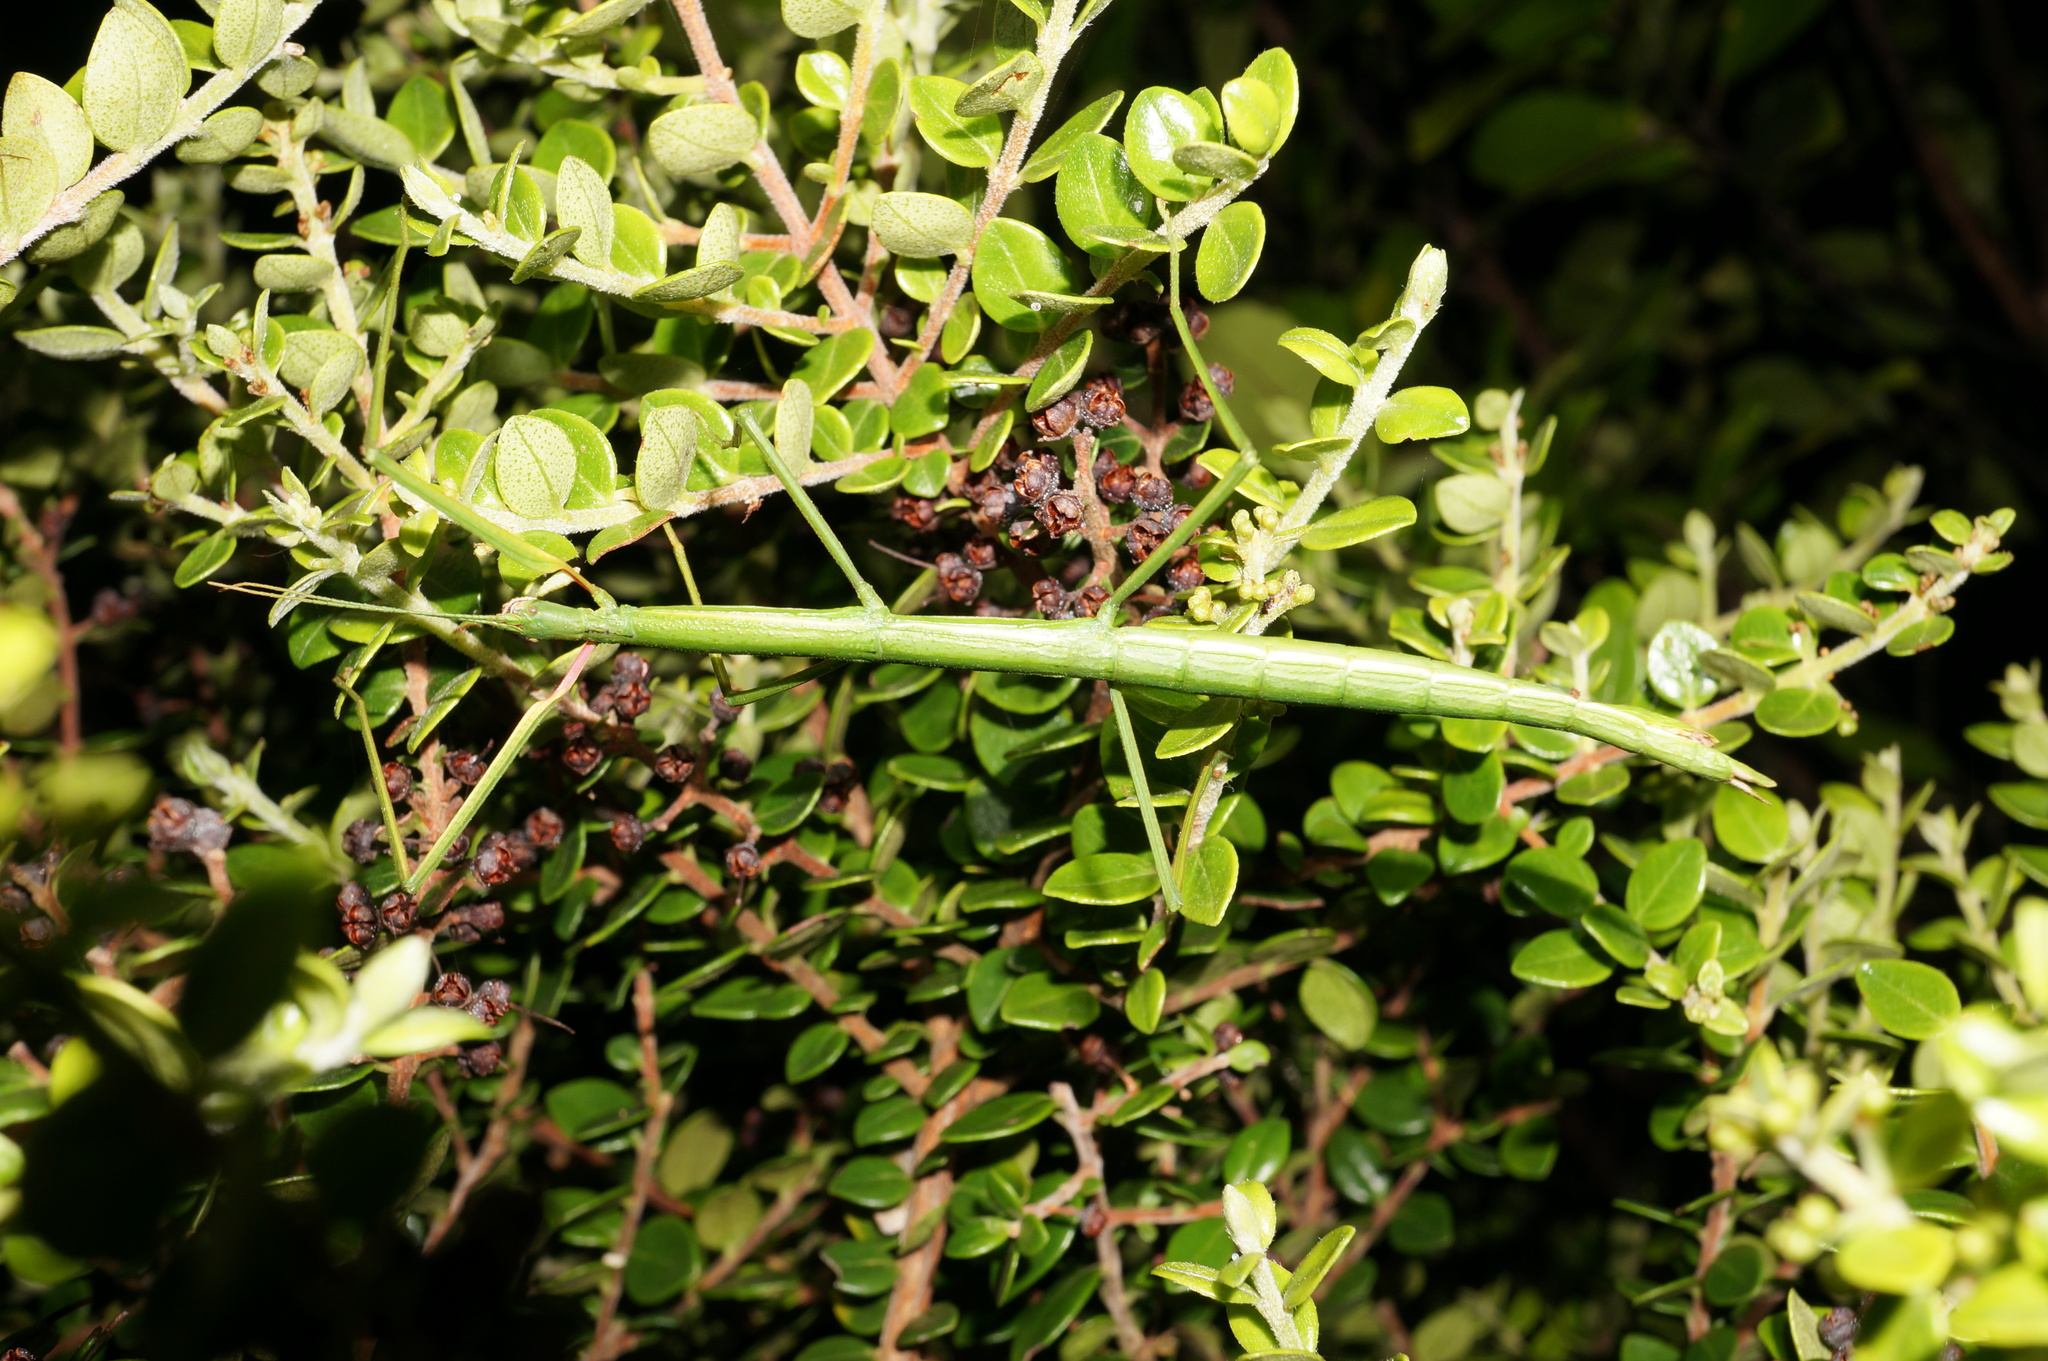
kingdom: Animalia
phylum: Arthropoda
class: Insecta
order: Phasmida
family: Phasmatidae
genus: Clitarchus
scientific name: Clitarchus hookeri
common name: Smooth stick insect
